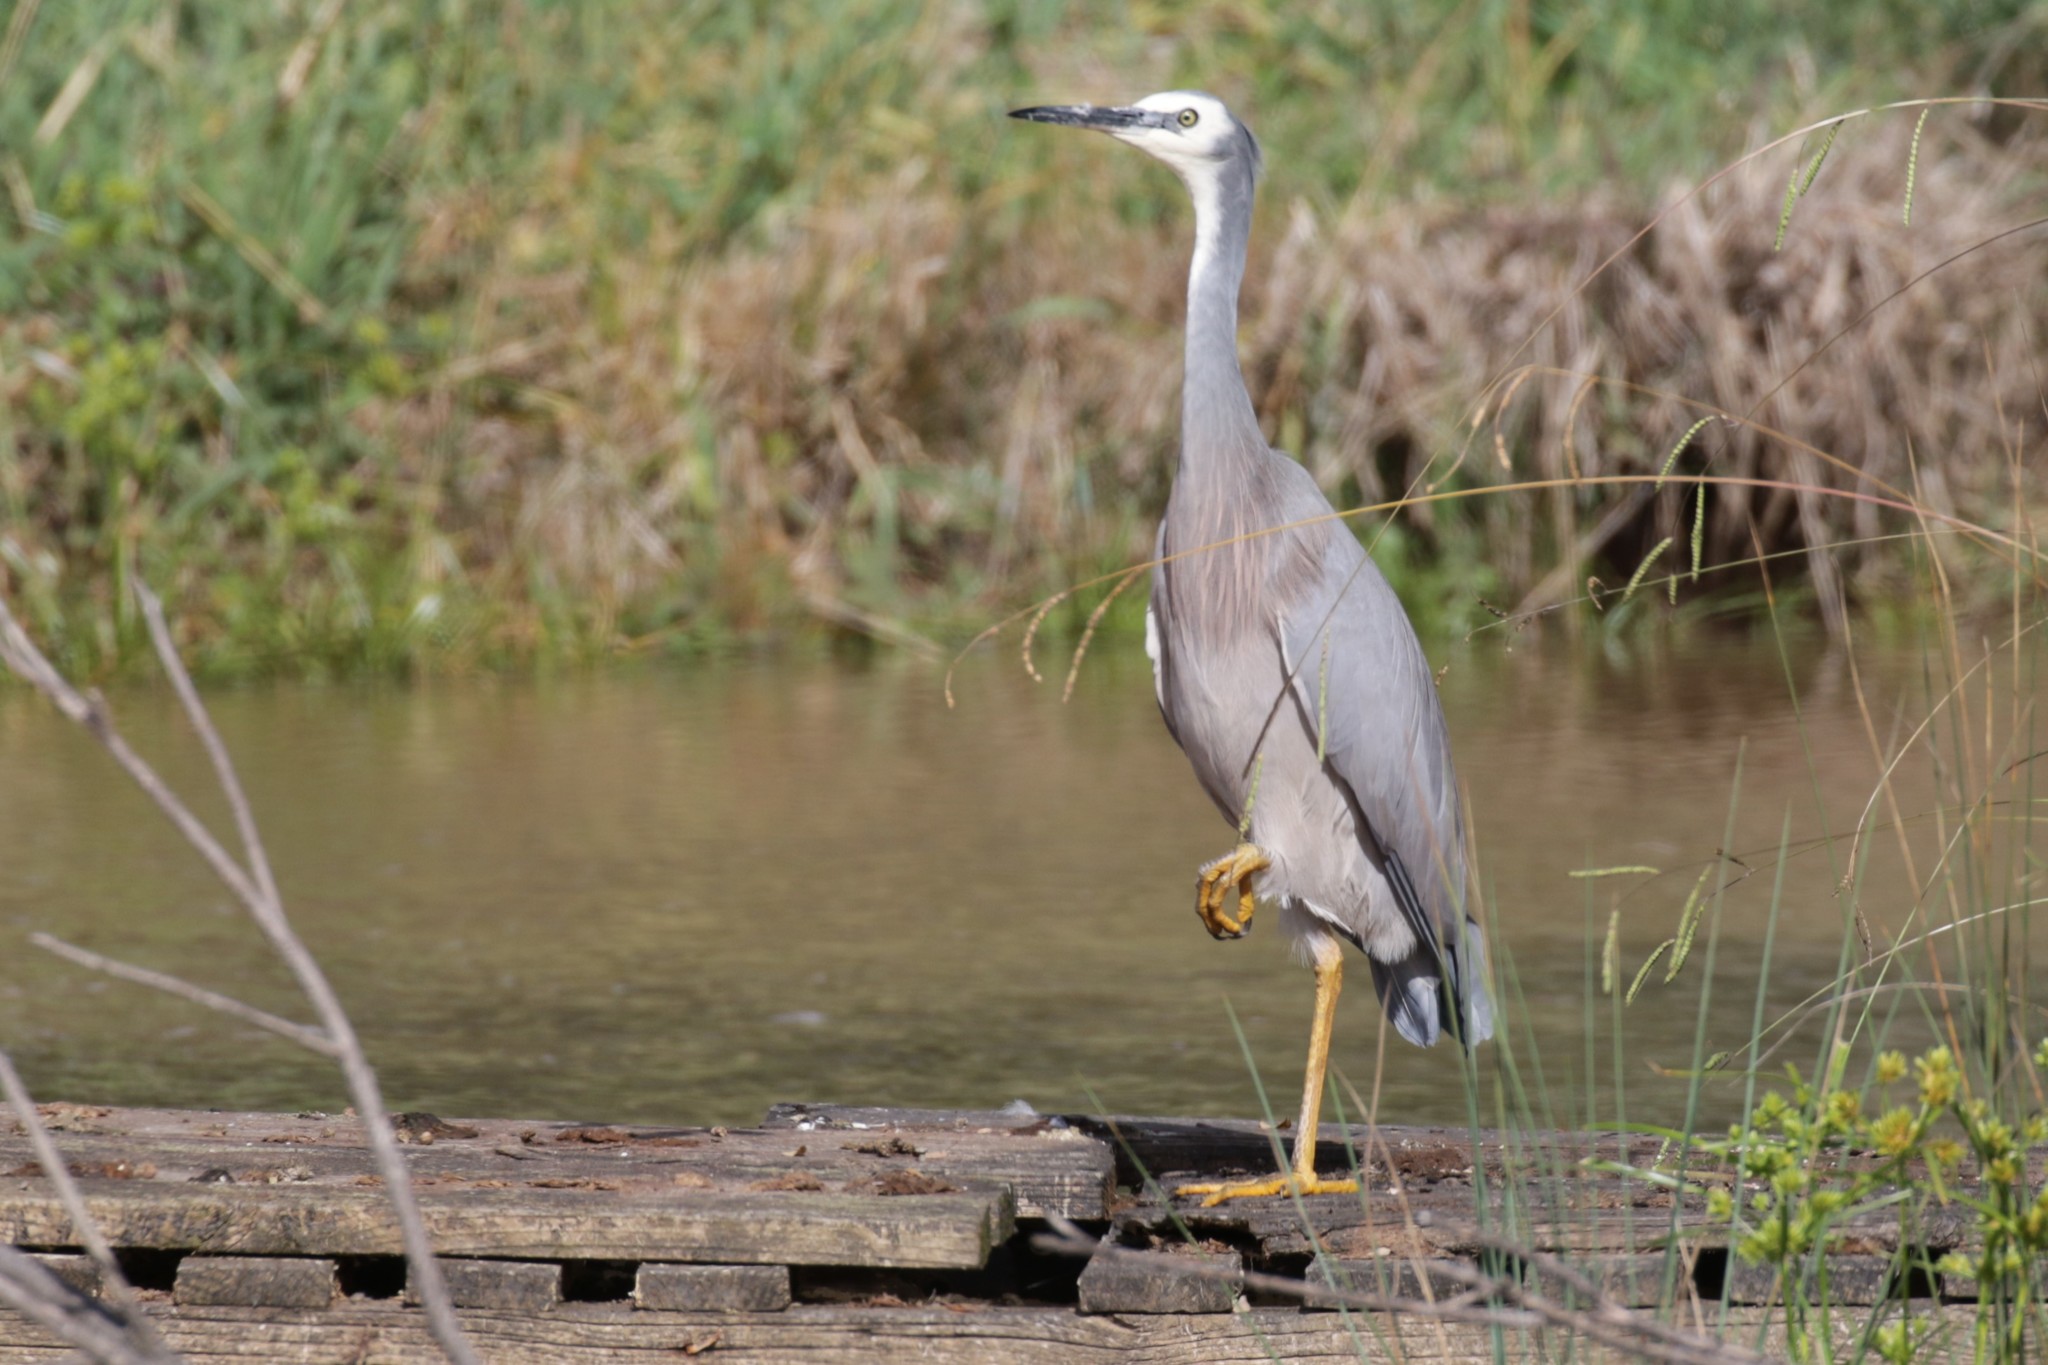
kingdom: Animalia
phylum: Chordata
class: Aves
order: Pelecaniformes
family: Ardeidae
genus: Egretta
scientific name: Egretta novaehollandiae
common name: White-faced heron
